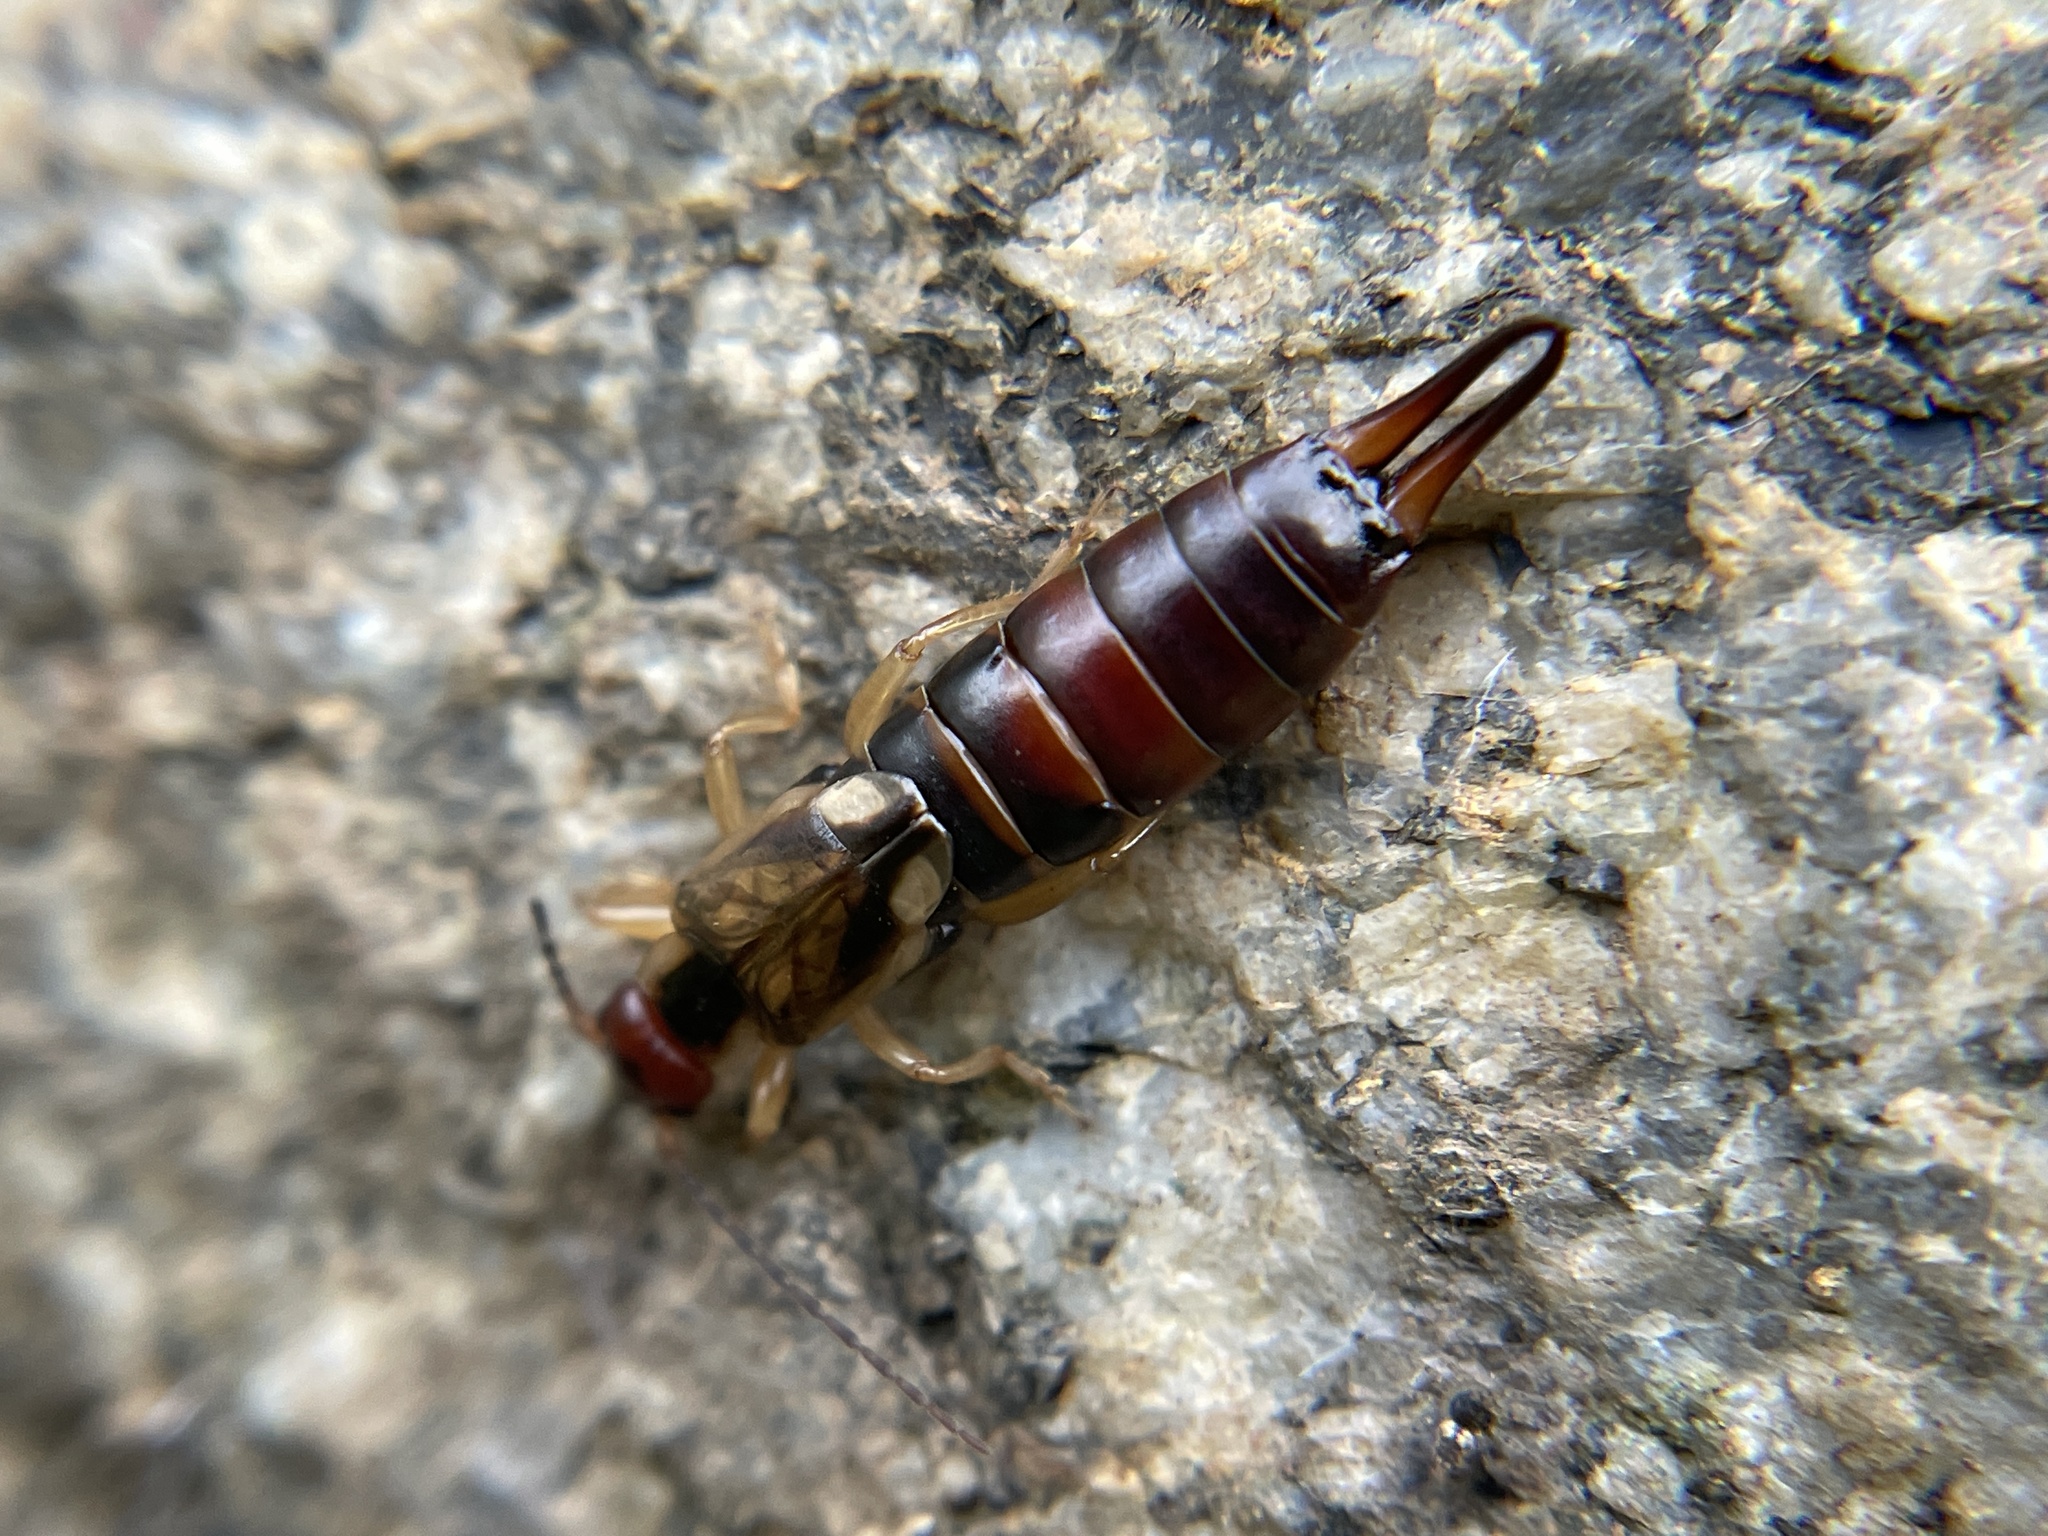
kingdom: Animalia
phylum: Arthropoda
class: Insecta
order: Dermaptera
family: Forficulidae
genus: Forficula
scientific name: Forficula
